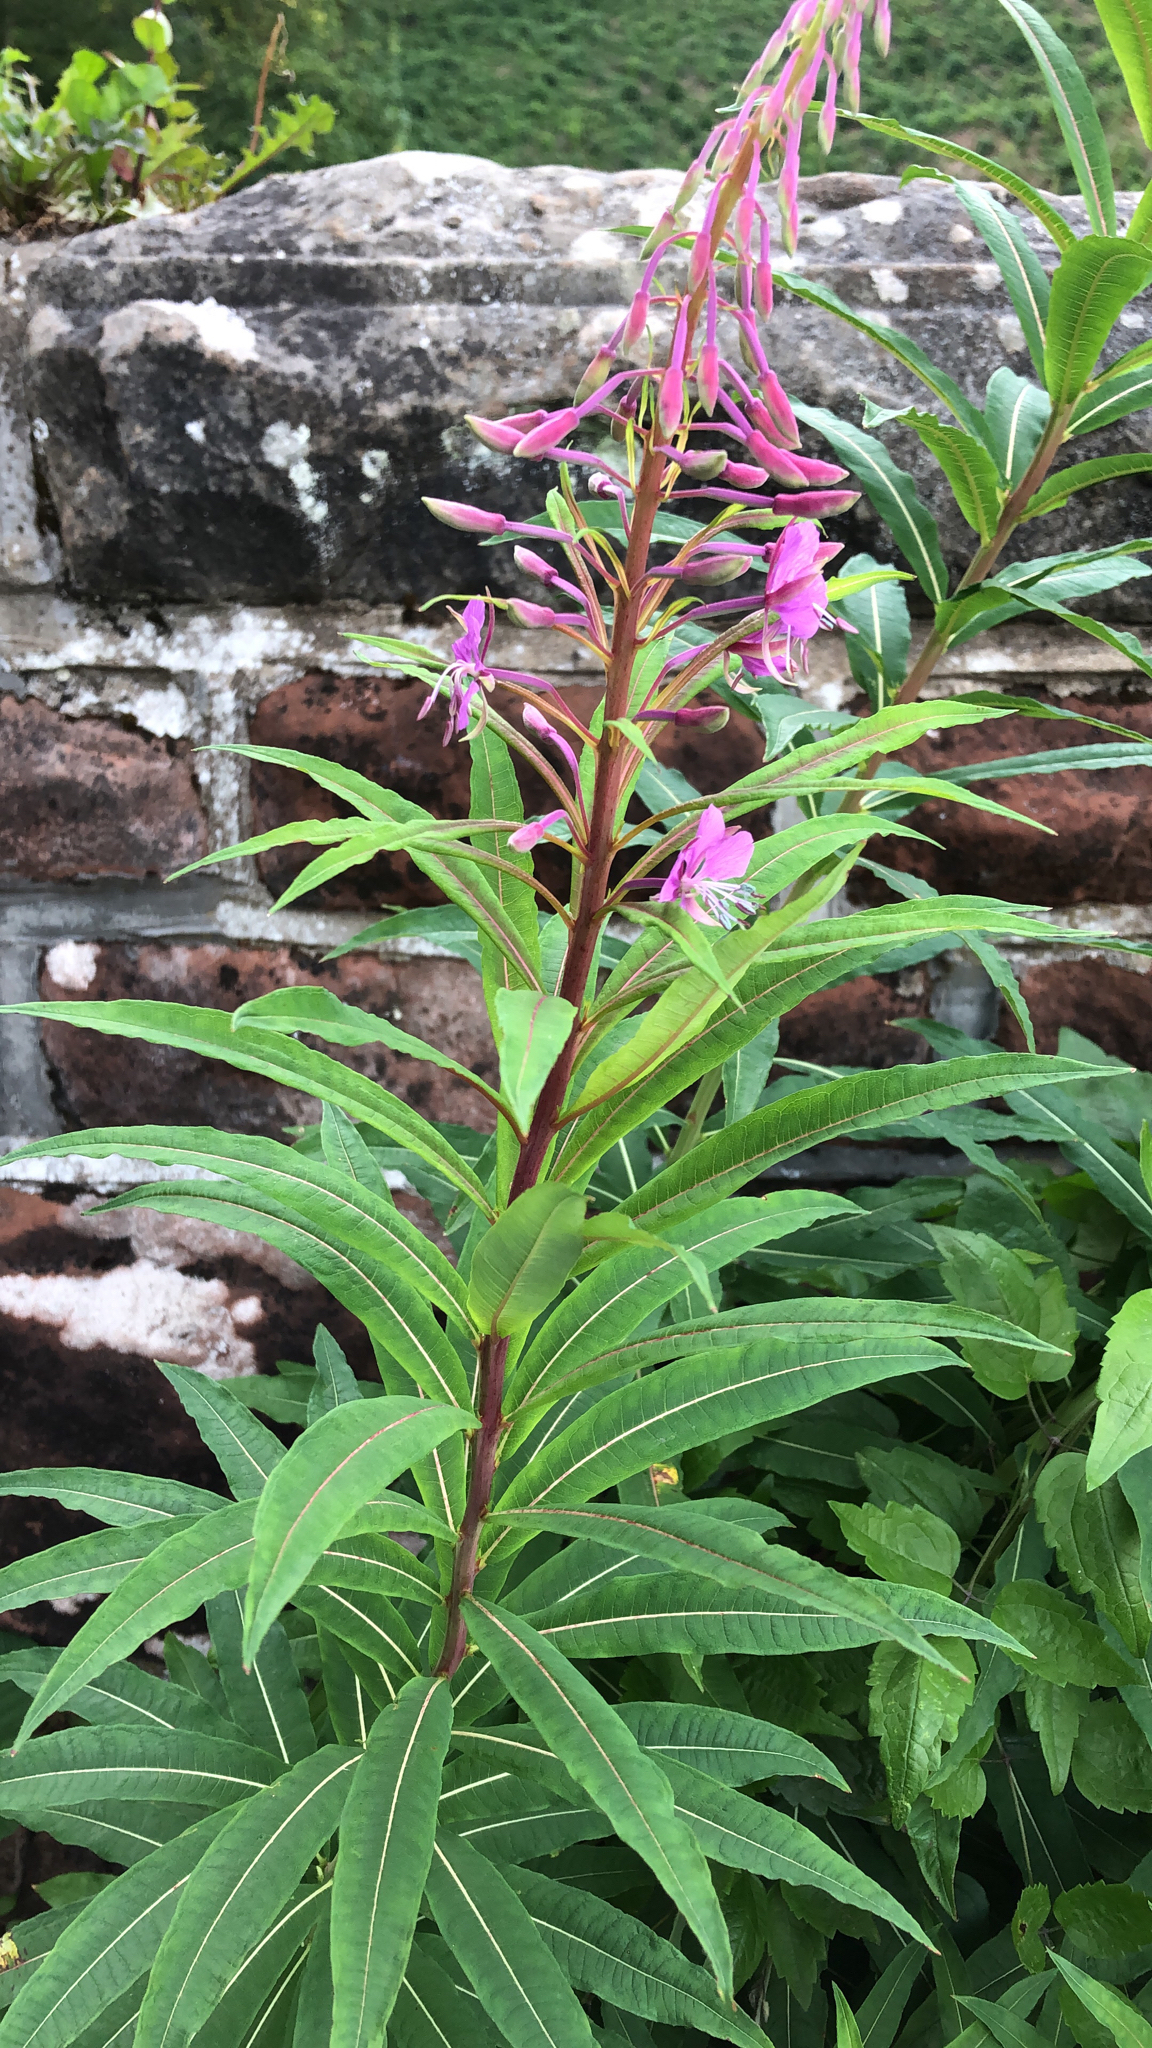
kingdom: Plantae
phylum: Tracheophyta
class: Magnoliopsida
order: Myrtales
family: Onagraceae
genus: Chamaenerion
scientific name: Chamaenerion angustifolium
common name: Fireweed
